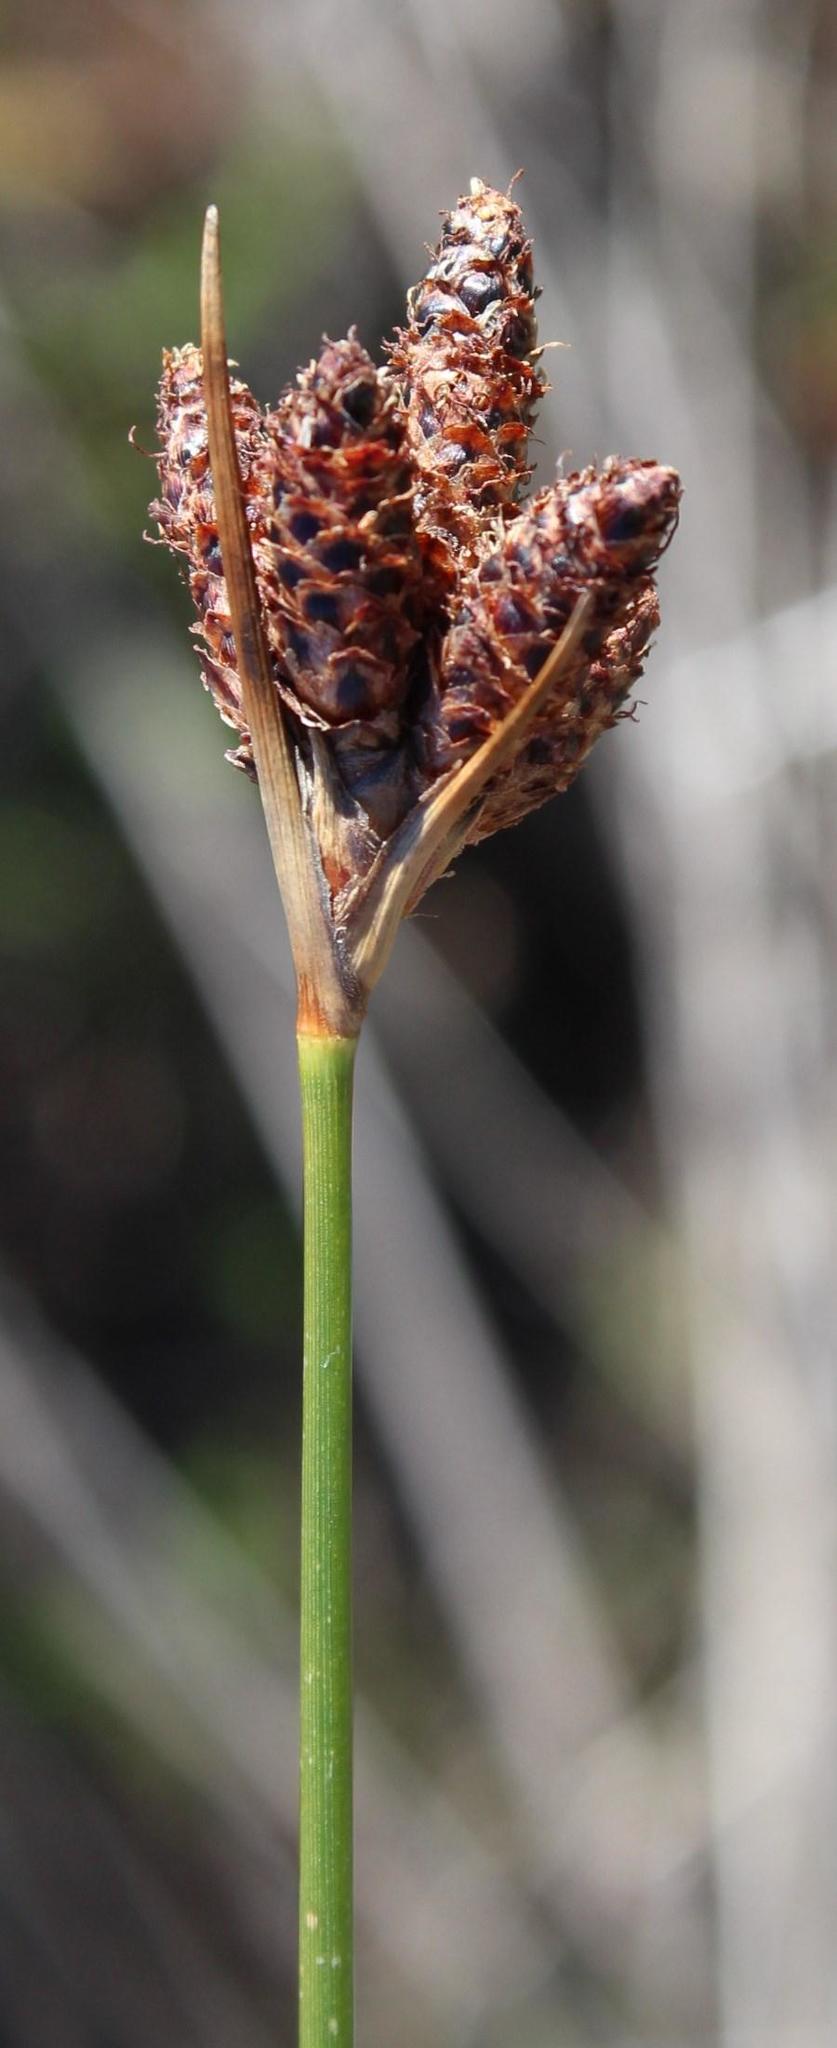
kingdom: Plantae
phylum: Tracheophyta
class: Liliopsida
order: Poales
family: Cyperaceae
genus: Hellmuthia
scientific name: Hellmuthia membranacea
